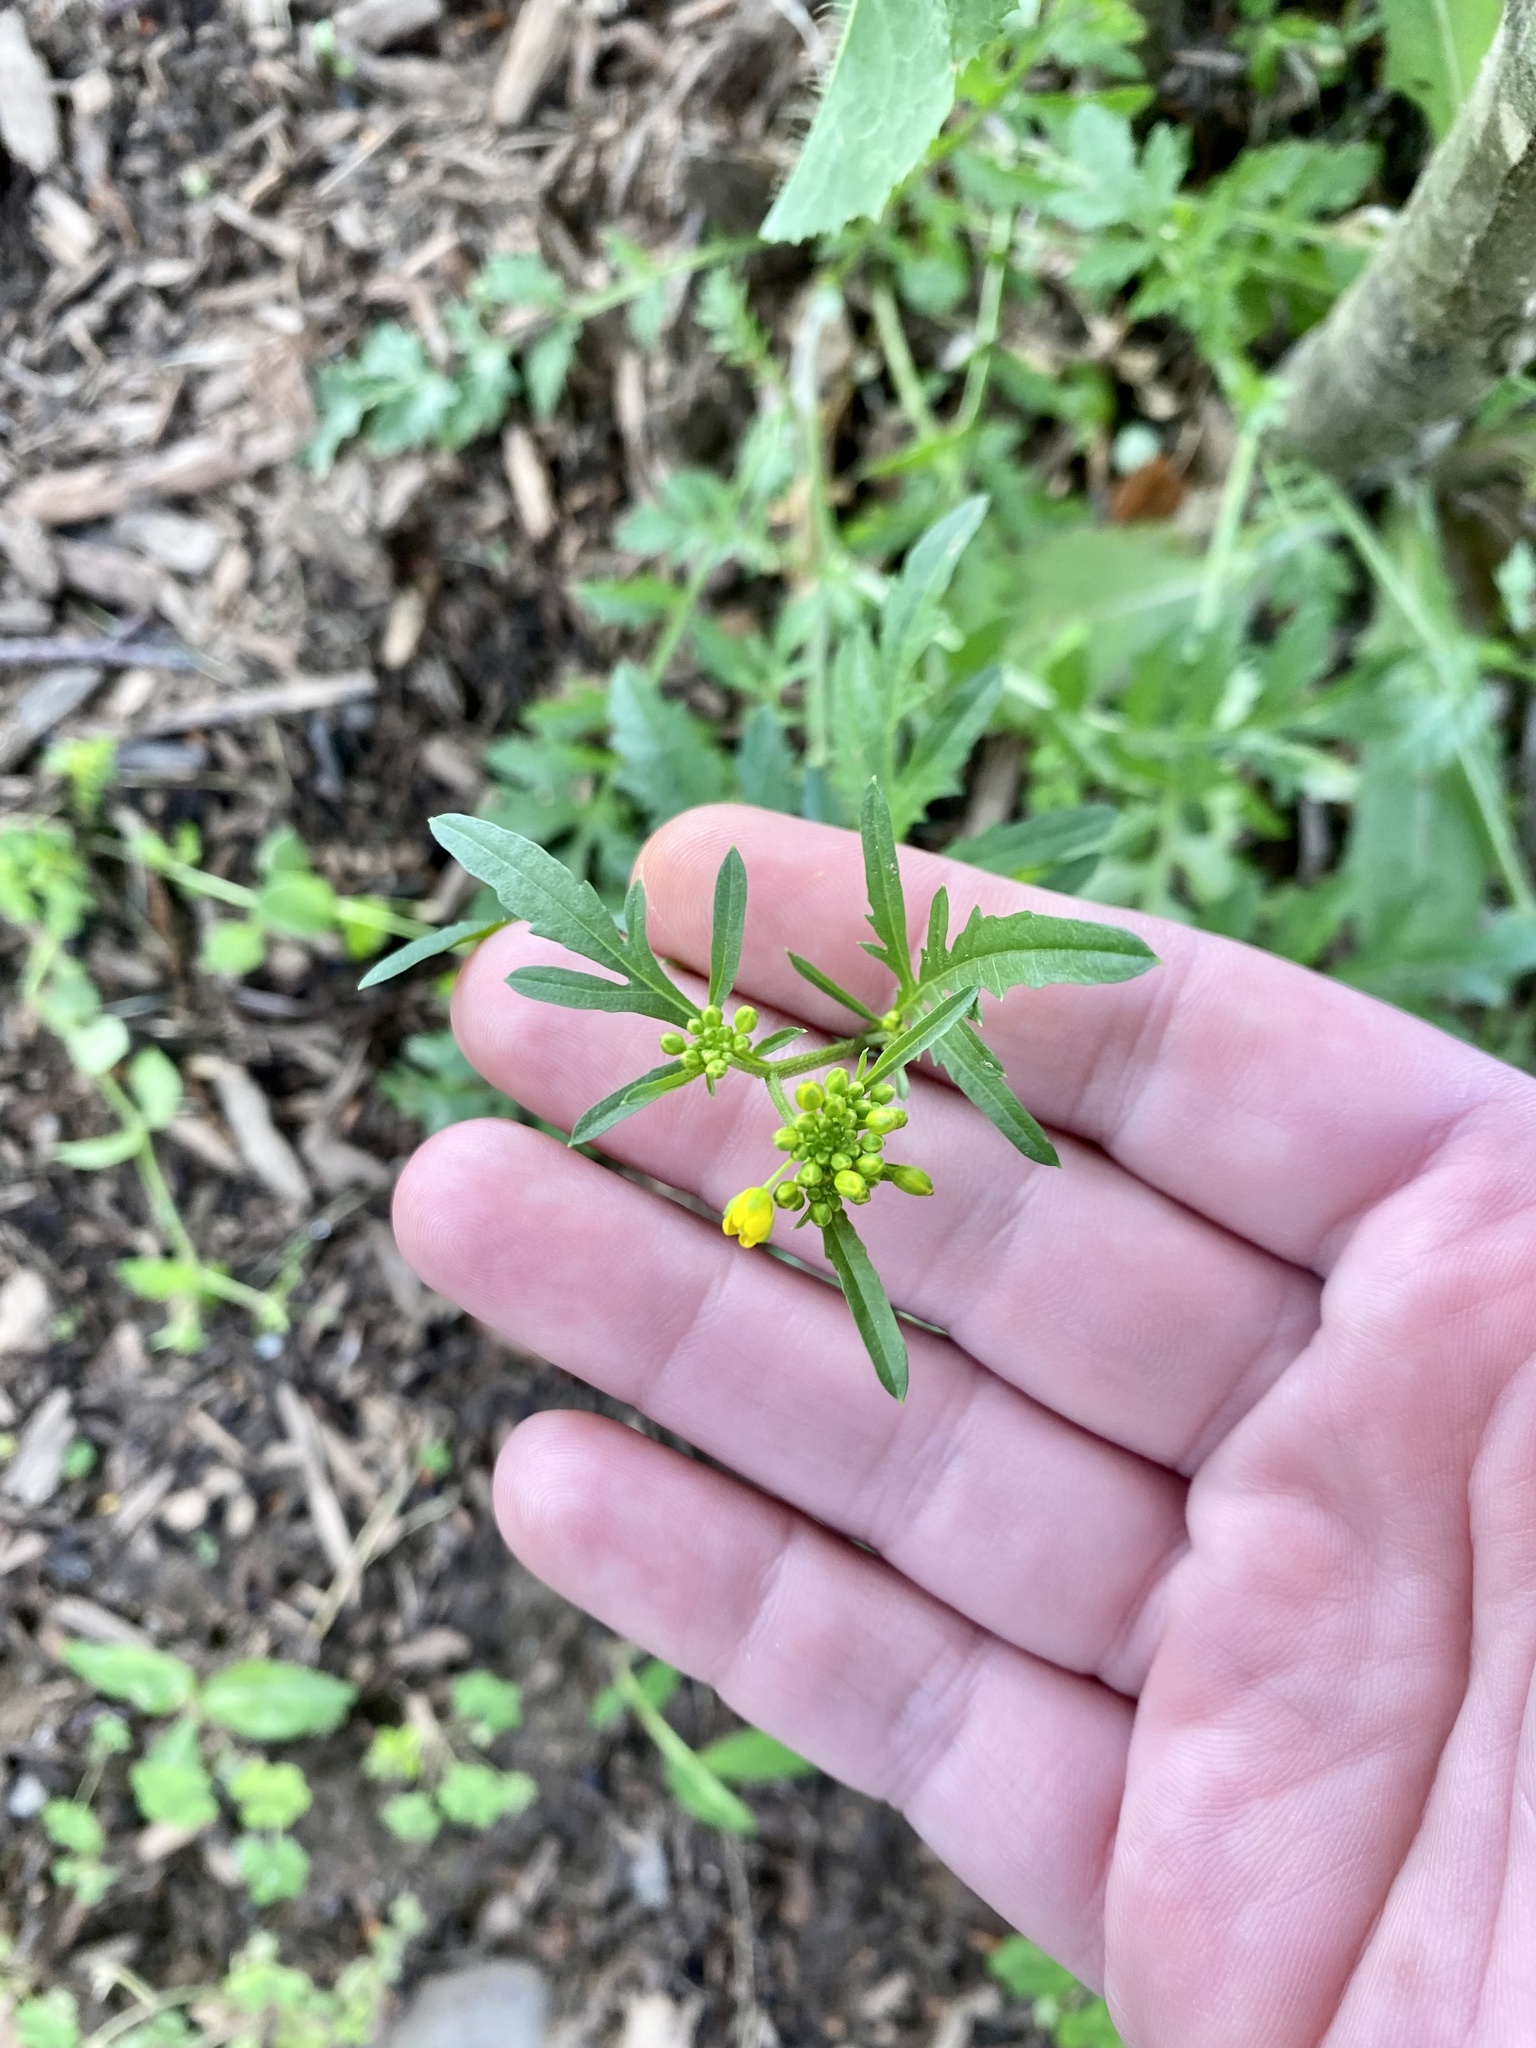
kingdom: Plantae
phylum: Tracheophyta
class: Magnoliopsida
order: Brassicales
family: Brassicaceae
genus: Rorippa
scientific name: Rorippa sylvestris
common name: Creeping yellowcress
